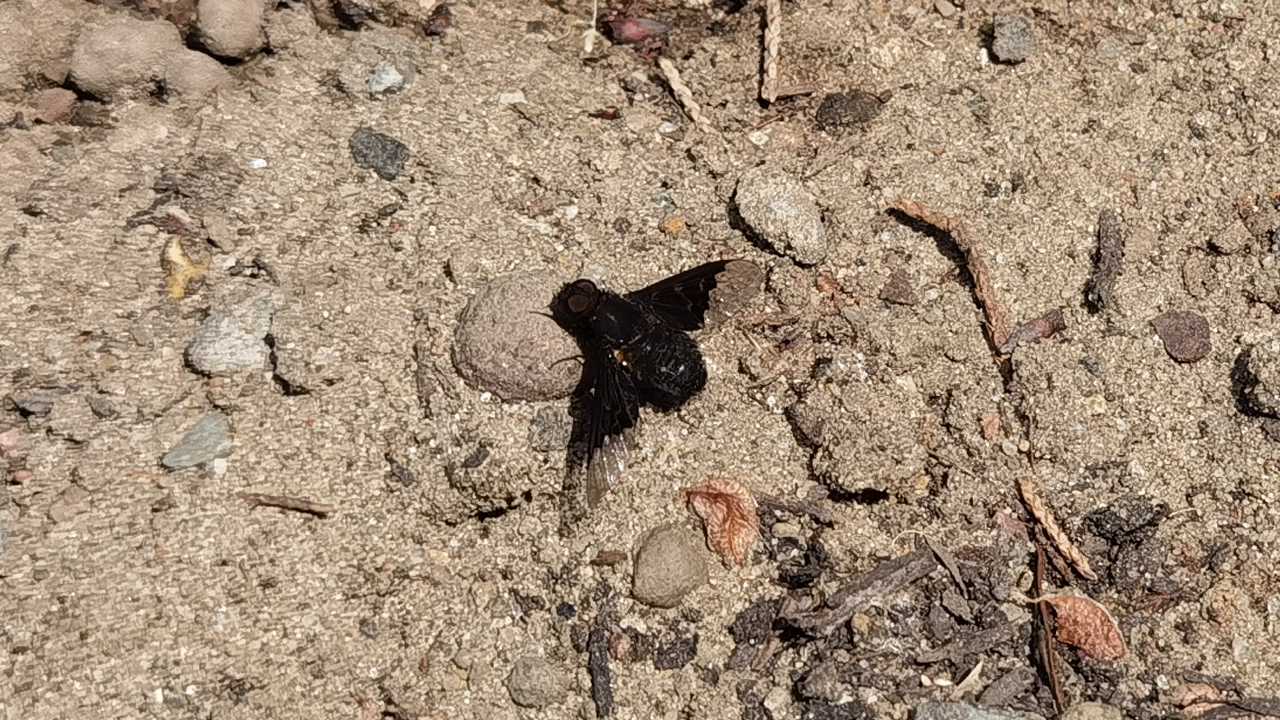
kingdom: Animalia
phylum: Arthropoda
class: Insecta
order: Diptera
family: Bombyliidae
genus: Hemipenthes
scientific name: Hemipenthes morio
